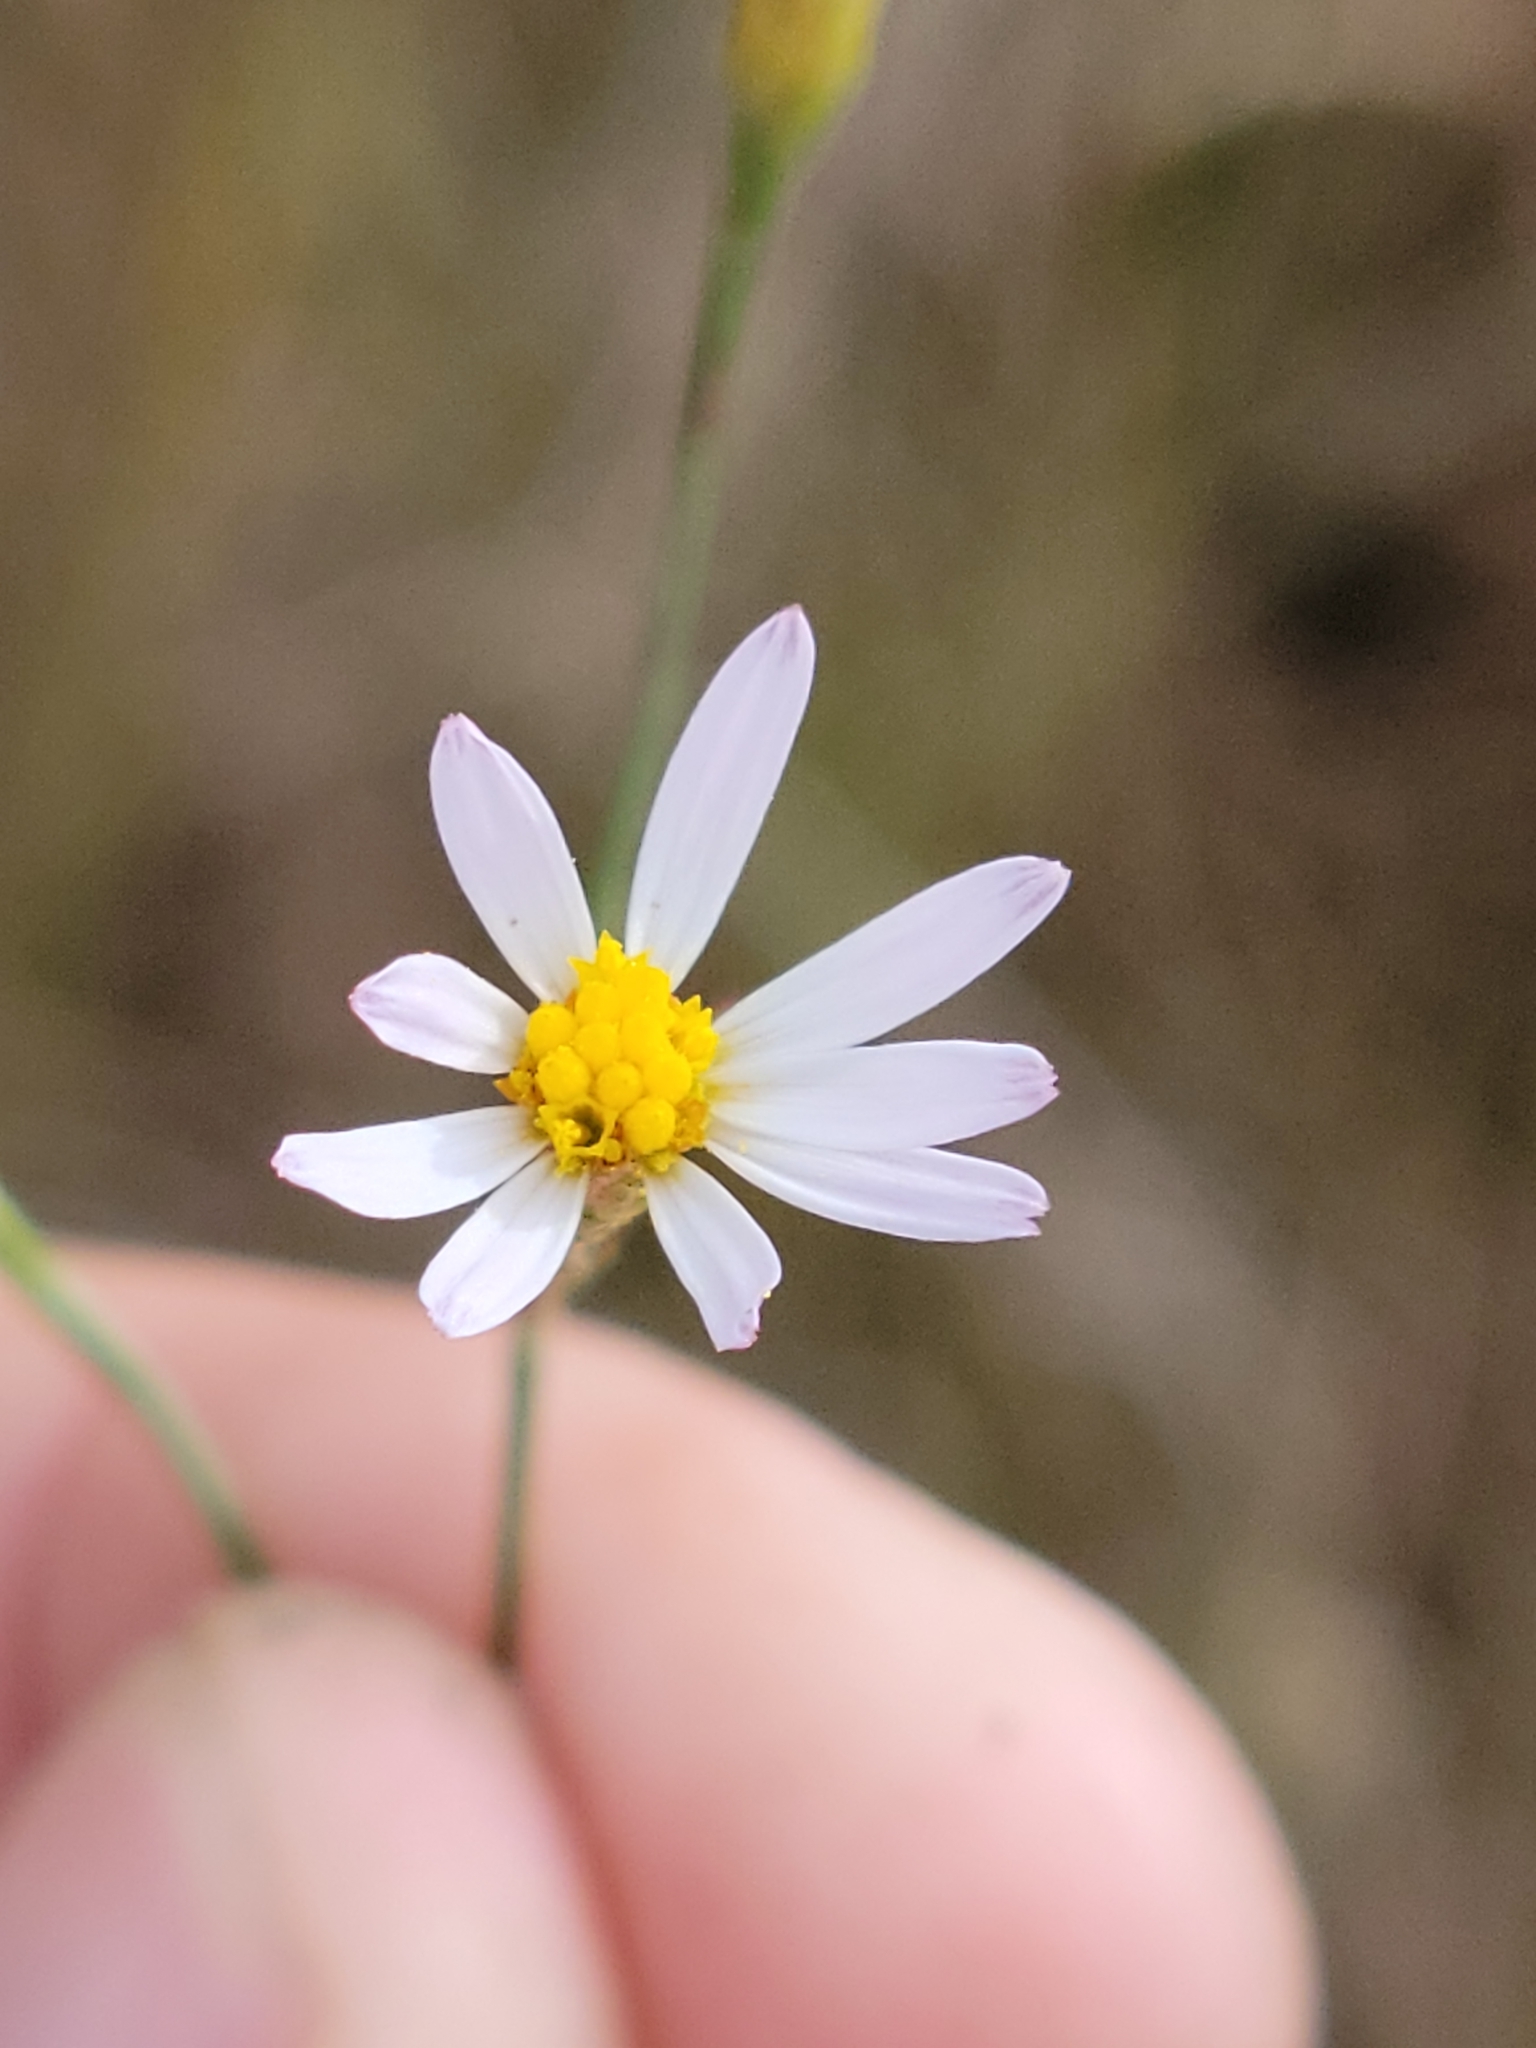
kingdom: Plantae
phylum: Tracheophyta
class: Magnoliopsida
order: Asterales
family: Asteraceae
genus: Symphyotrichum
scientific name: Symphyotrichum tenuifolium
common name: Perennial salt-marsh aster
